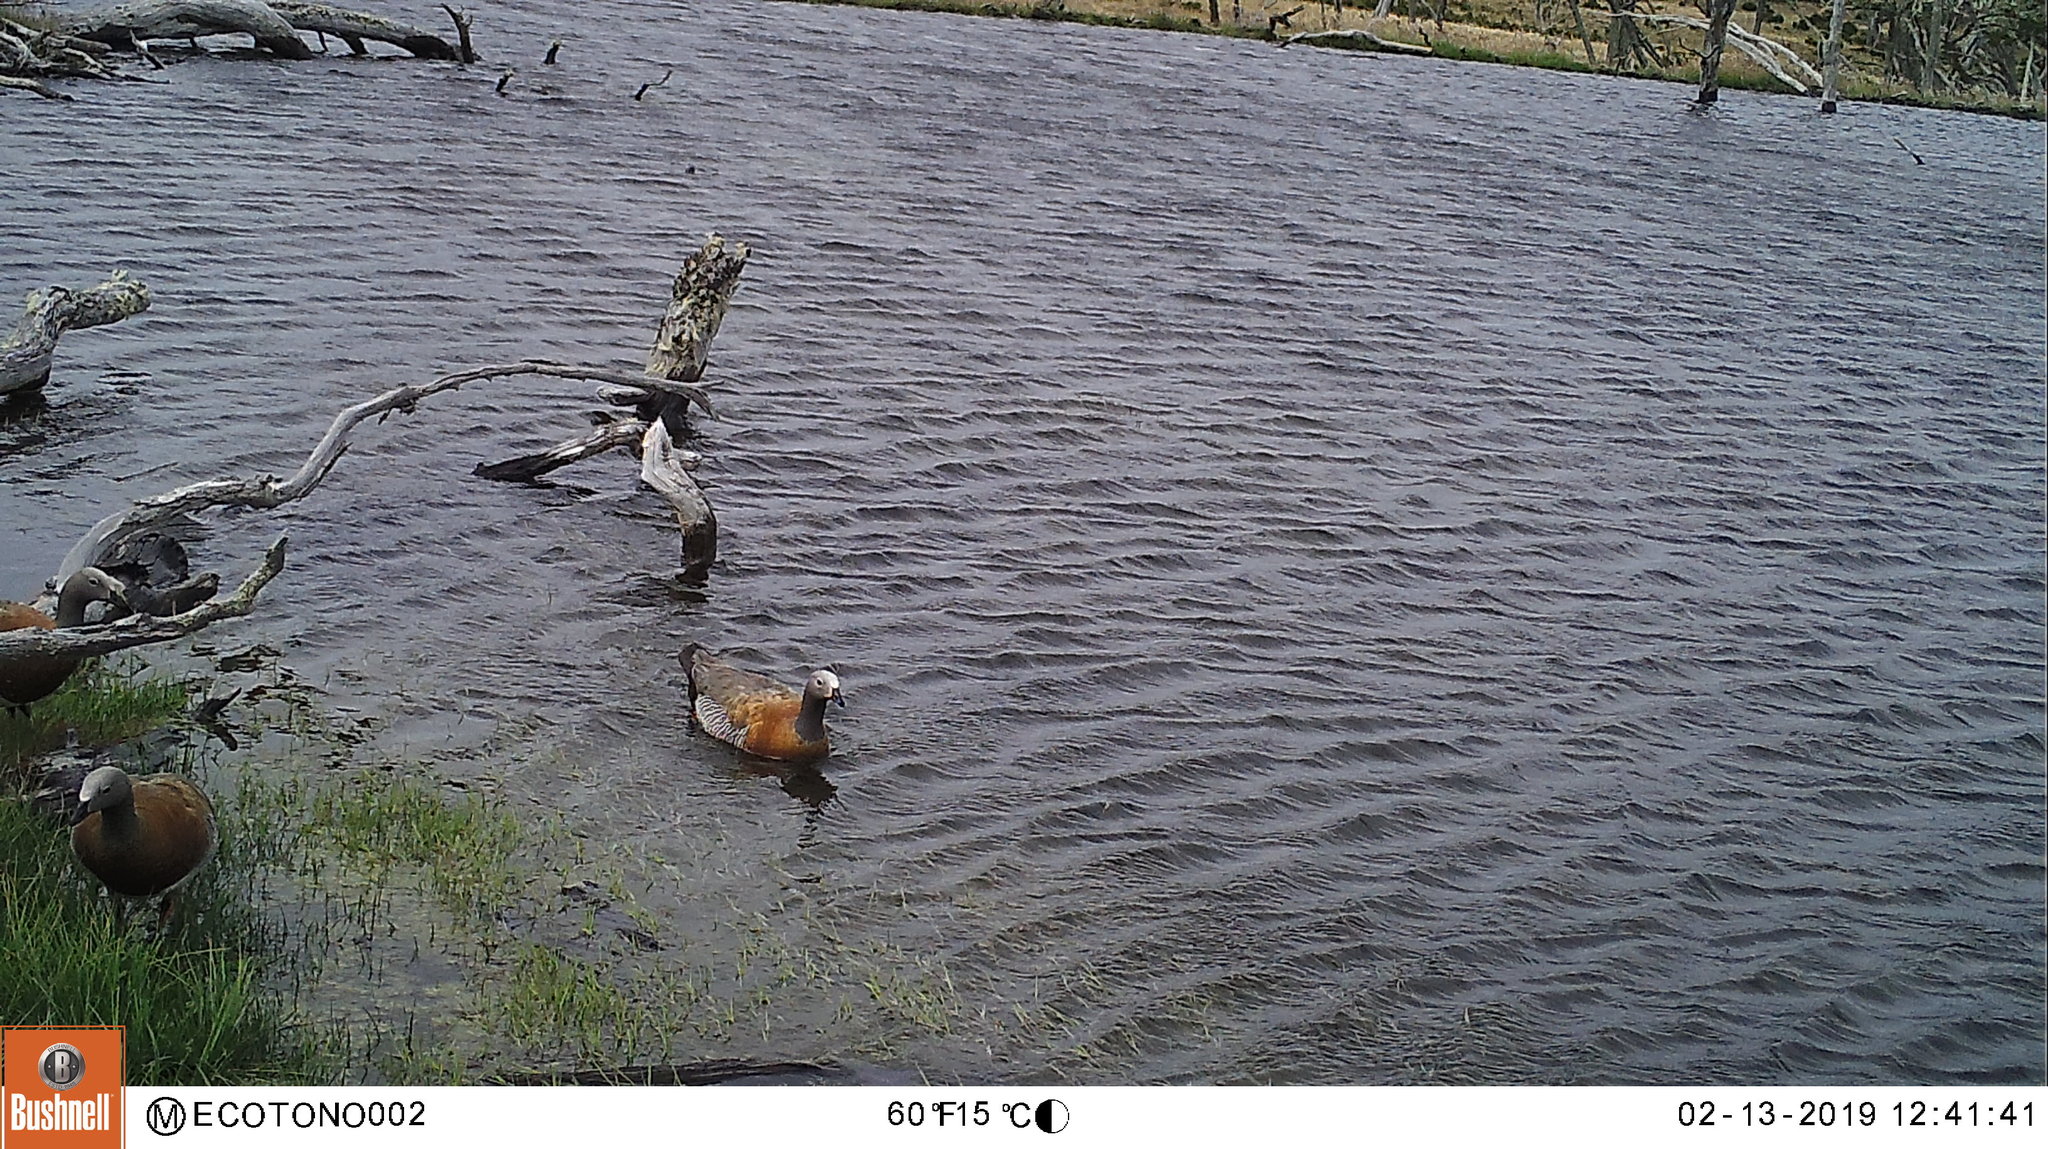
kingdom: Animalia
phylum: Chordata
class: Aves
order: Anseriformes
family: Anatidae
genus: Chloephaga
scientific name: Chloephaga poliocephala
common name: Ashy-headed goose
